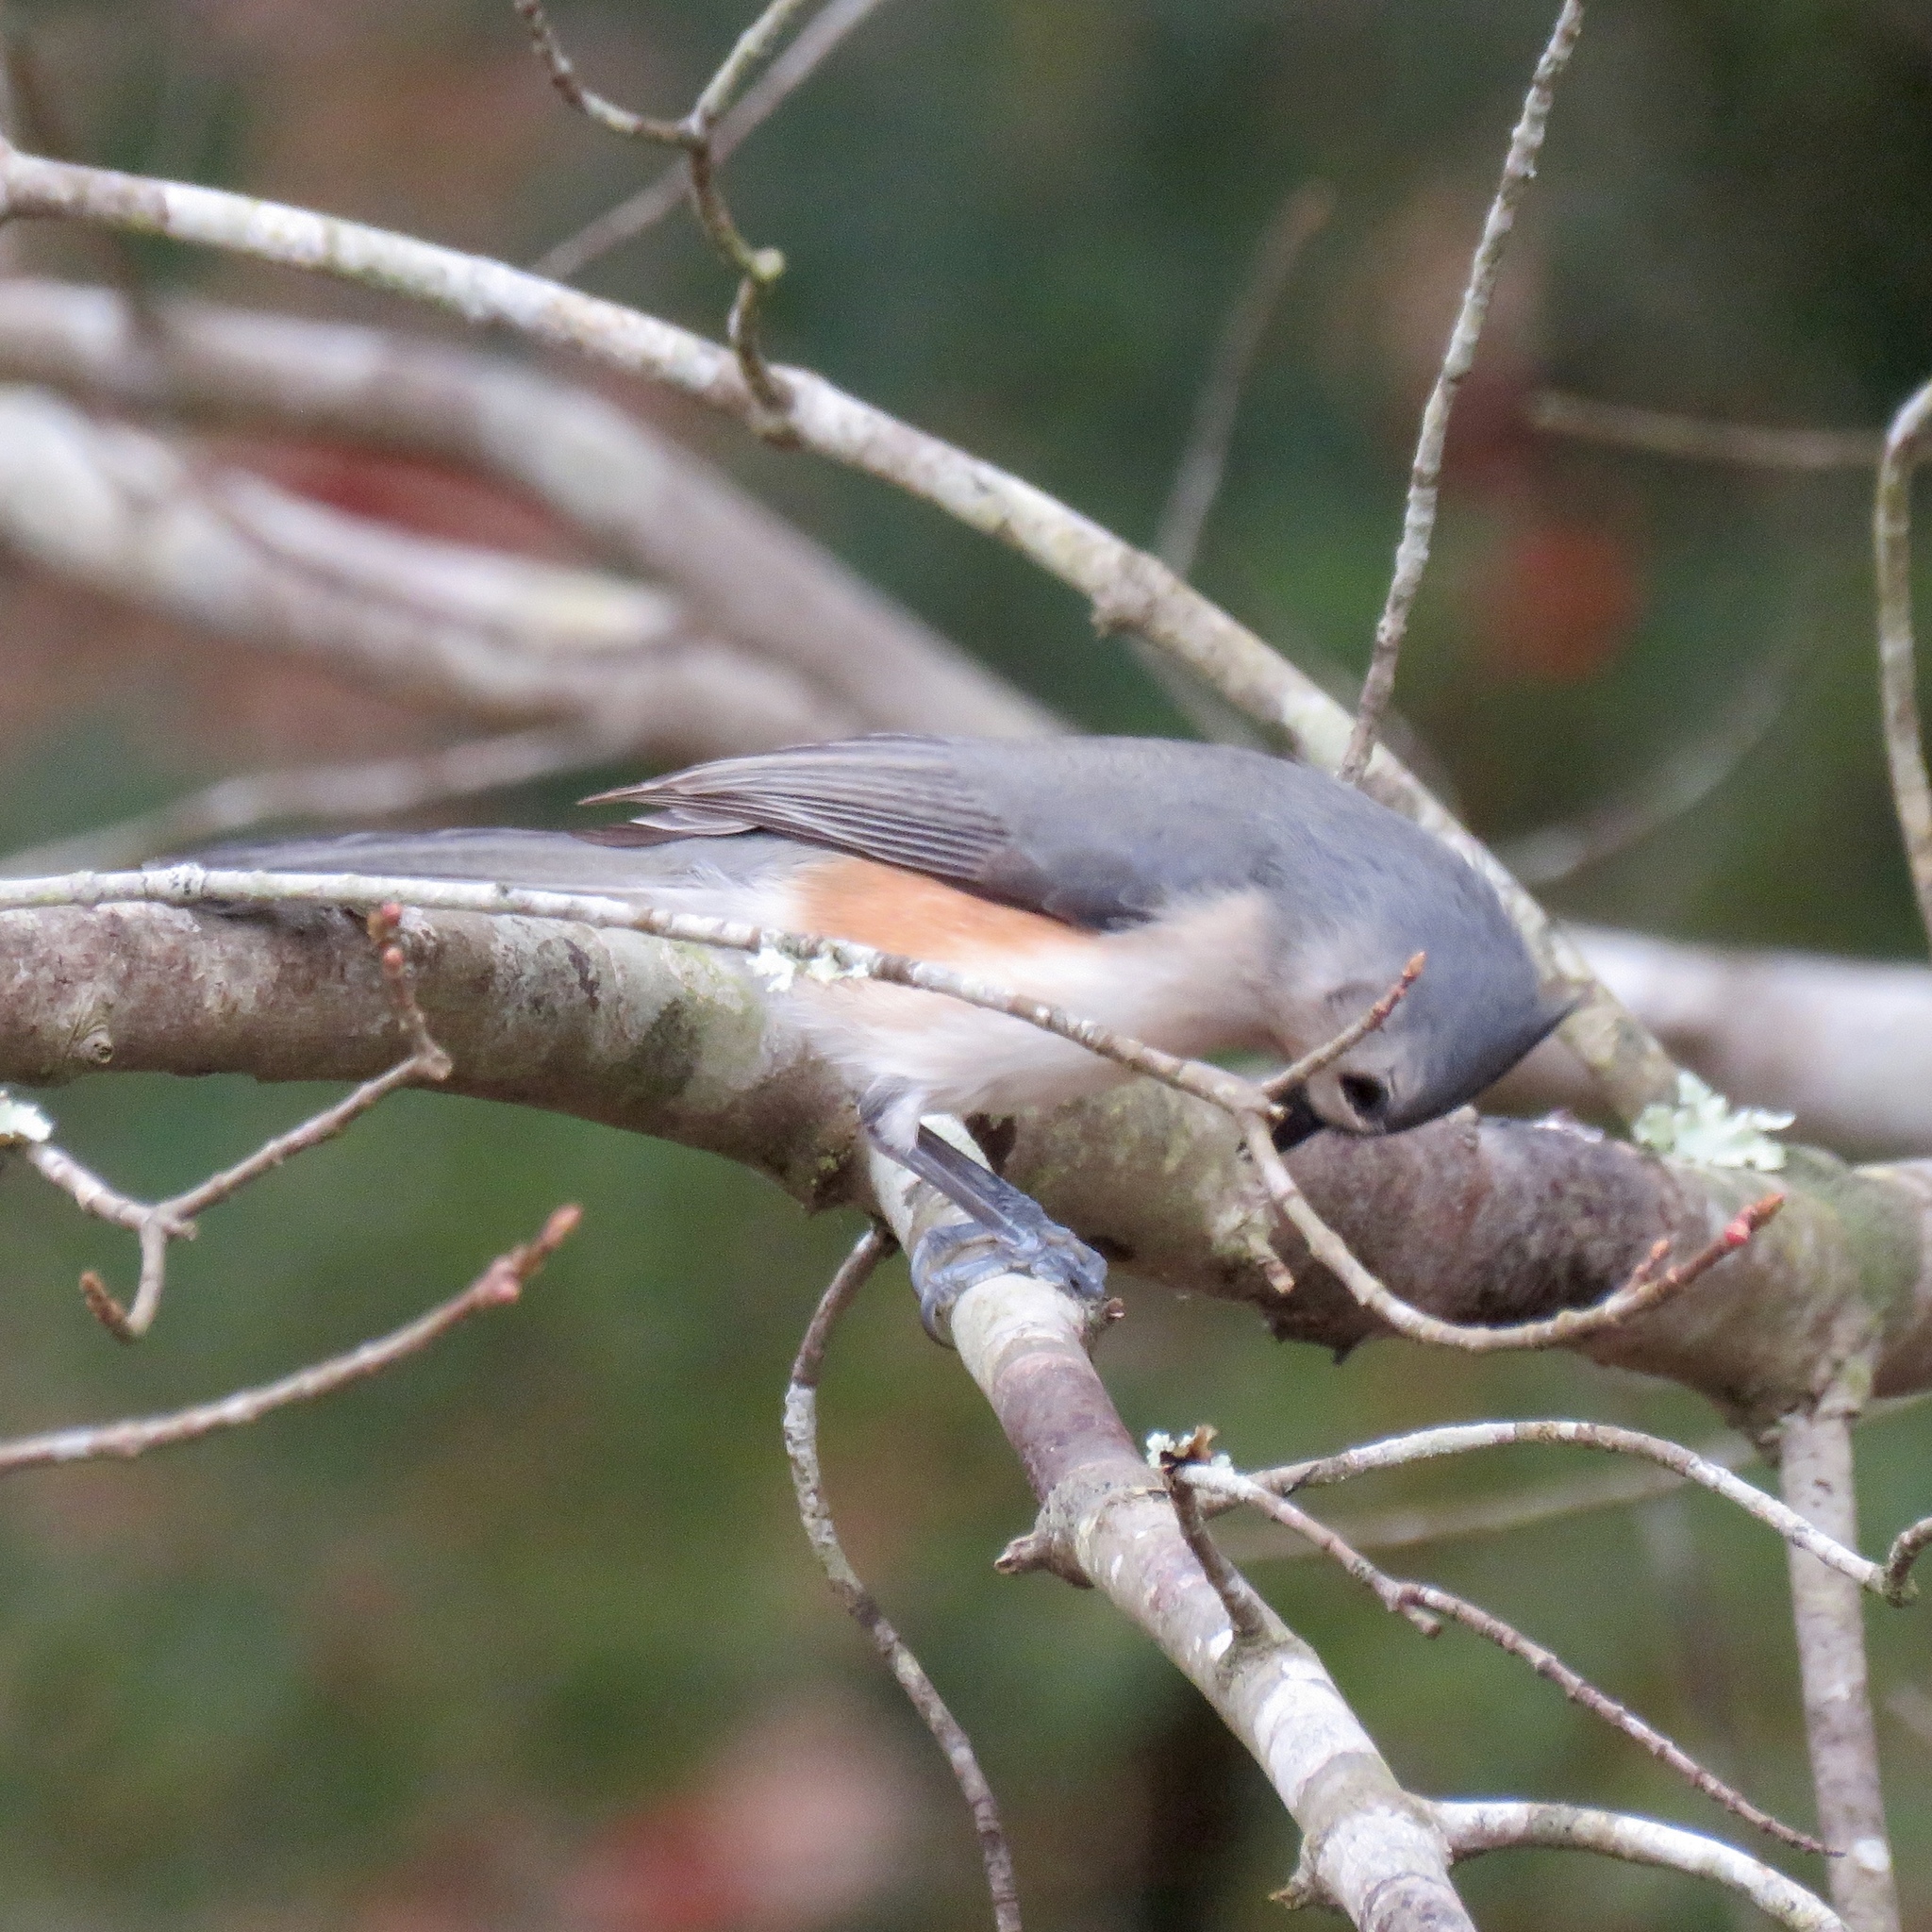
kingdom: Animalia
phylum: Chordata
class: Aves
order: Passeriformes
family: Paridae
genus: Baeolophus
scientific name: Baeolophus bicolor
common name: Tufted titmouse
